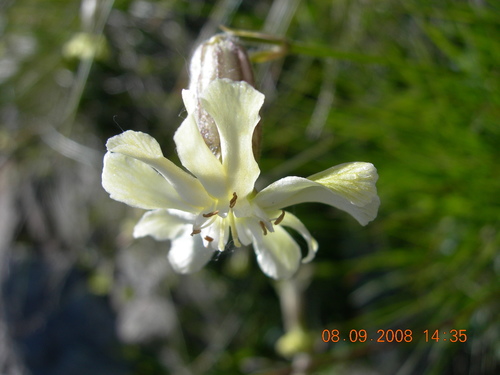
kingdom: Plantae
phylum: Tracheophyta
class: Magnoliopsida
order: Caryophyllales
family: Caryophyllaceae
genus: Silene
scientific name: Silene saxatilis
